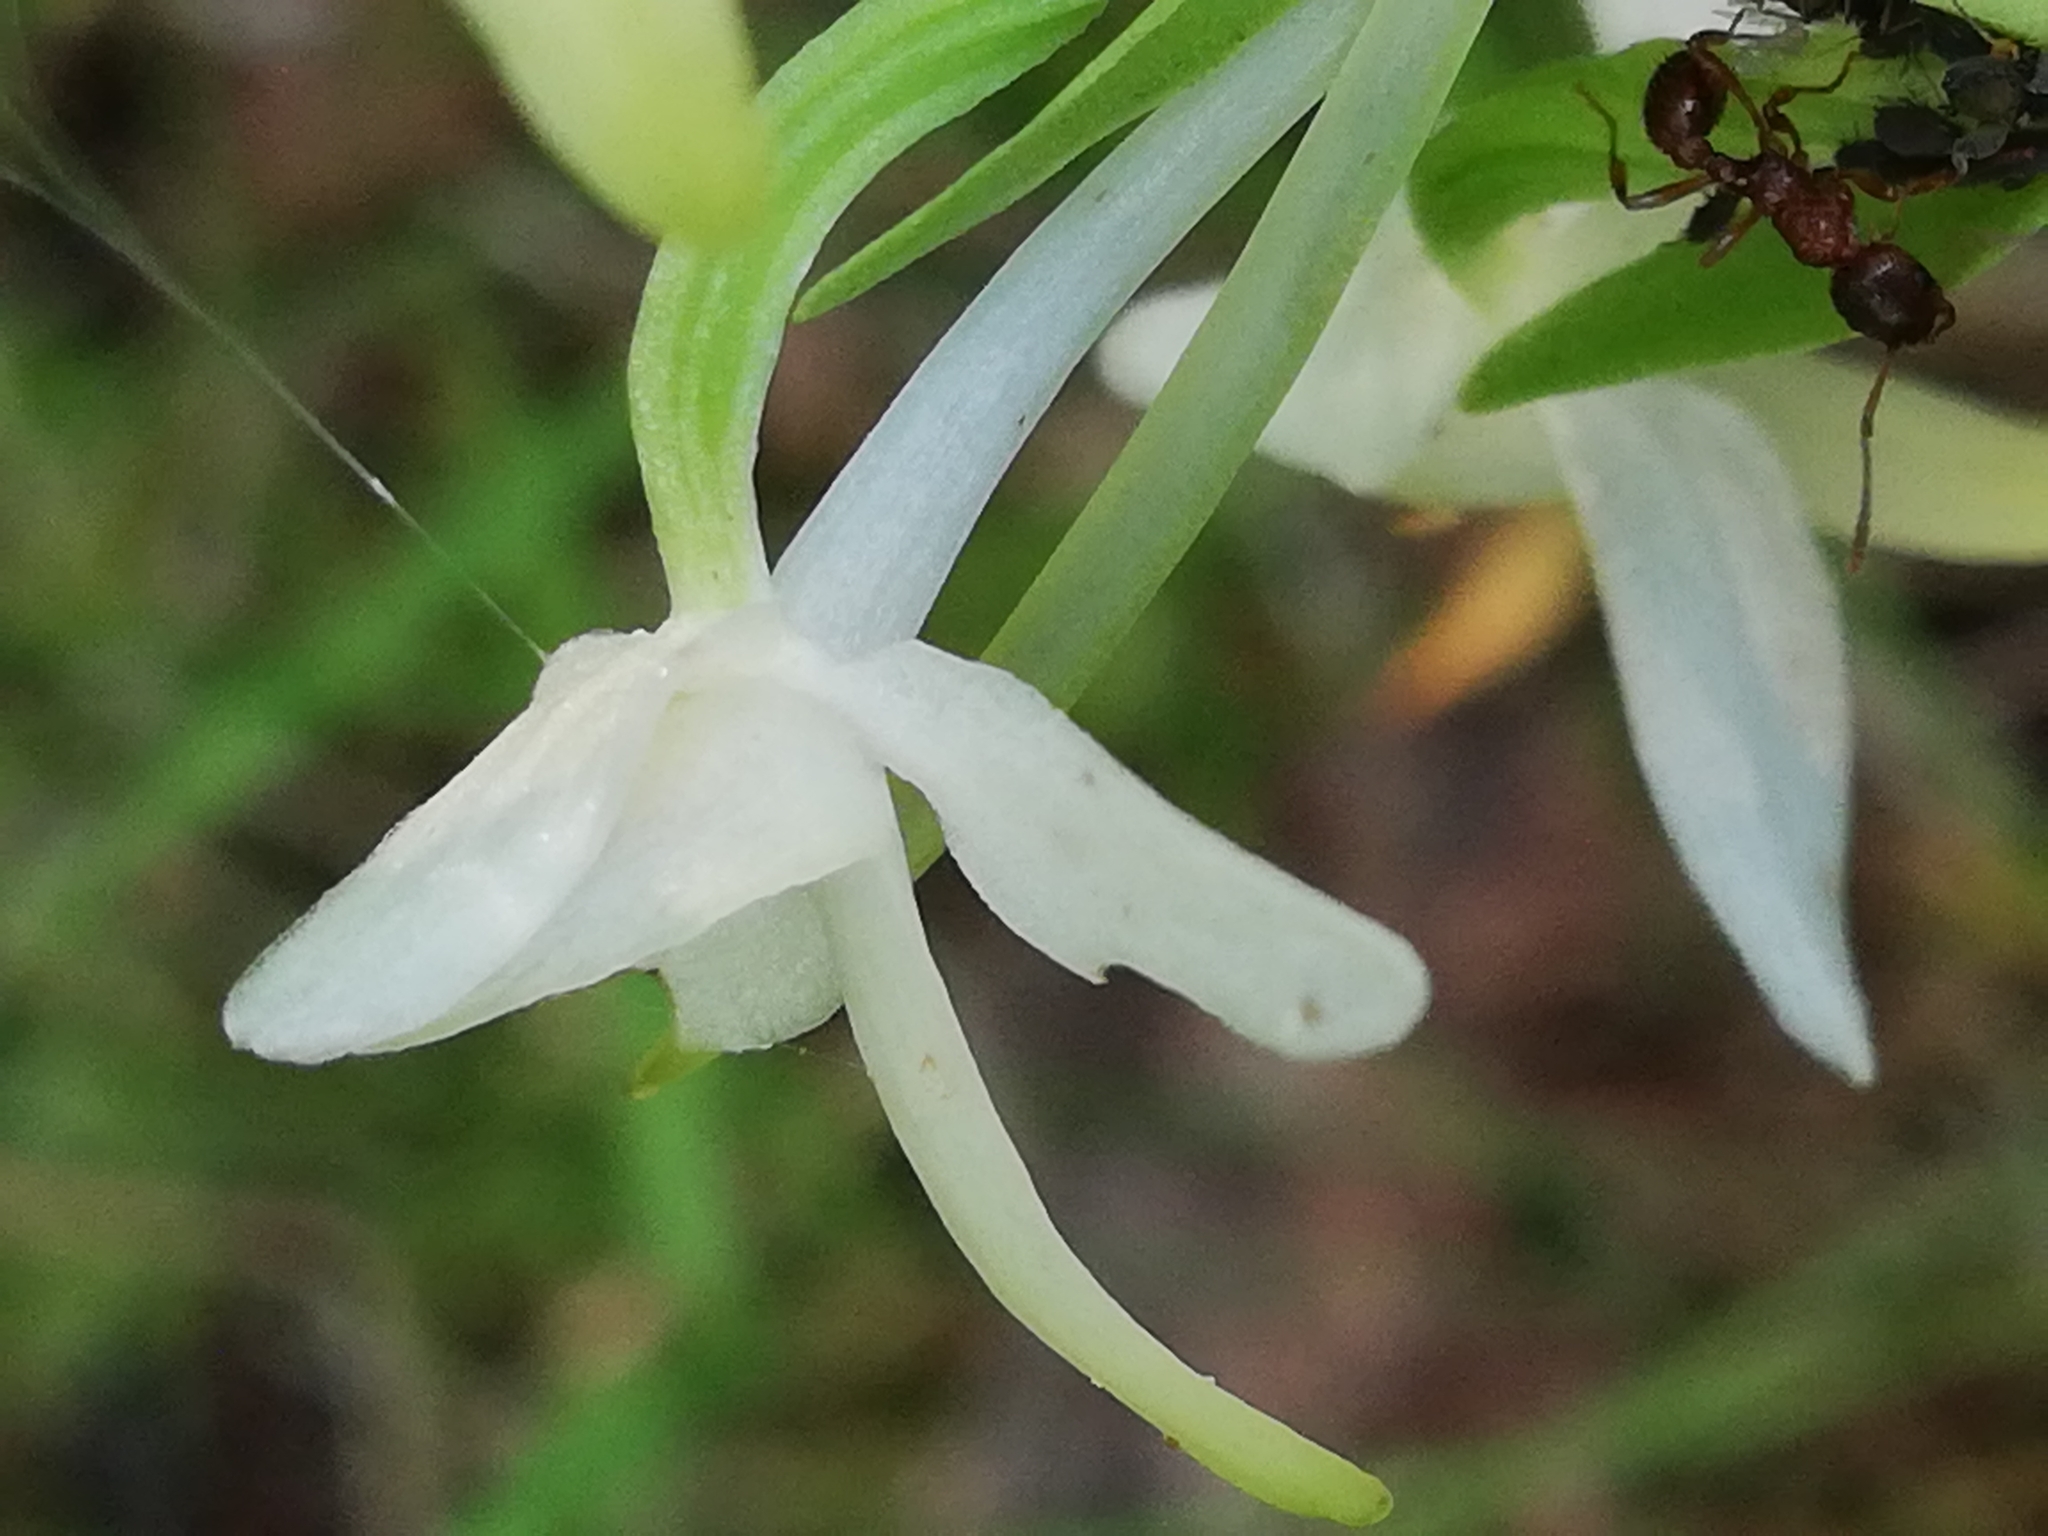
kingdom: Plantae
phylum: Tracheophyta
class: Liliopsida
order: Asparagales
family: Orchidaceae
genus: Platanthera
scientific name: Platanthera bifolia
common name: Lesser butterfly-orchid
